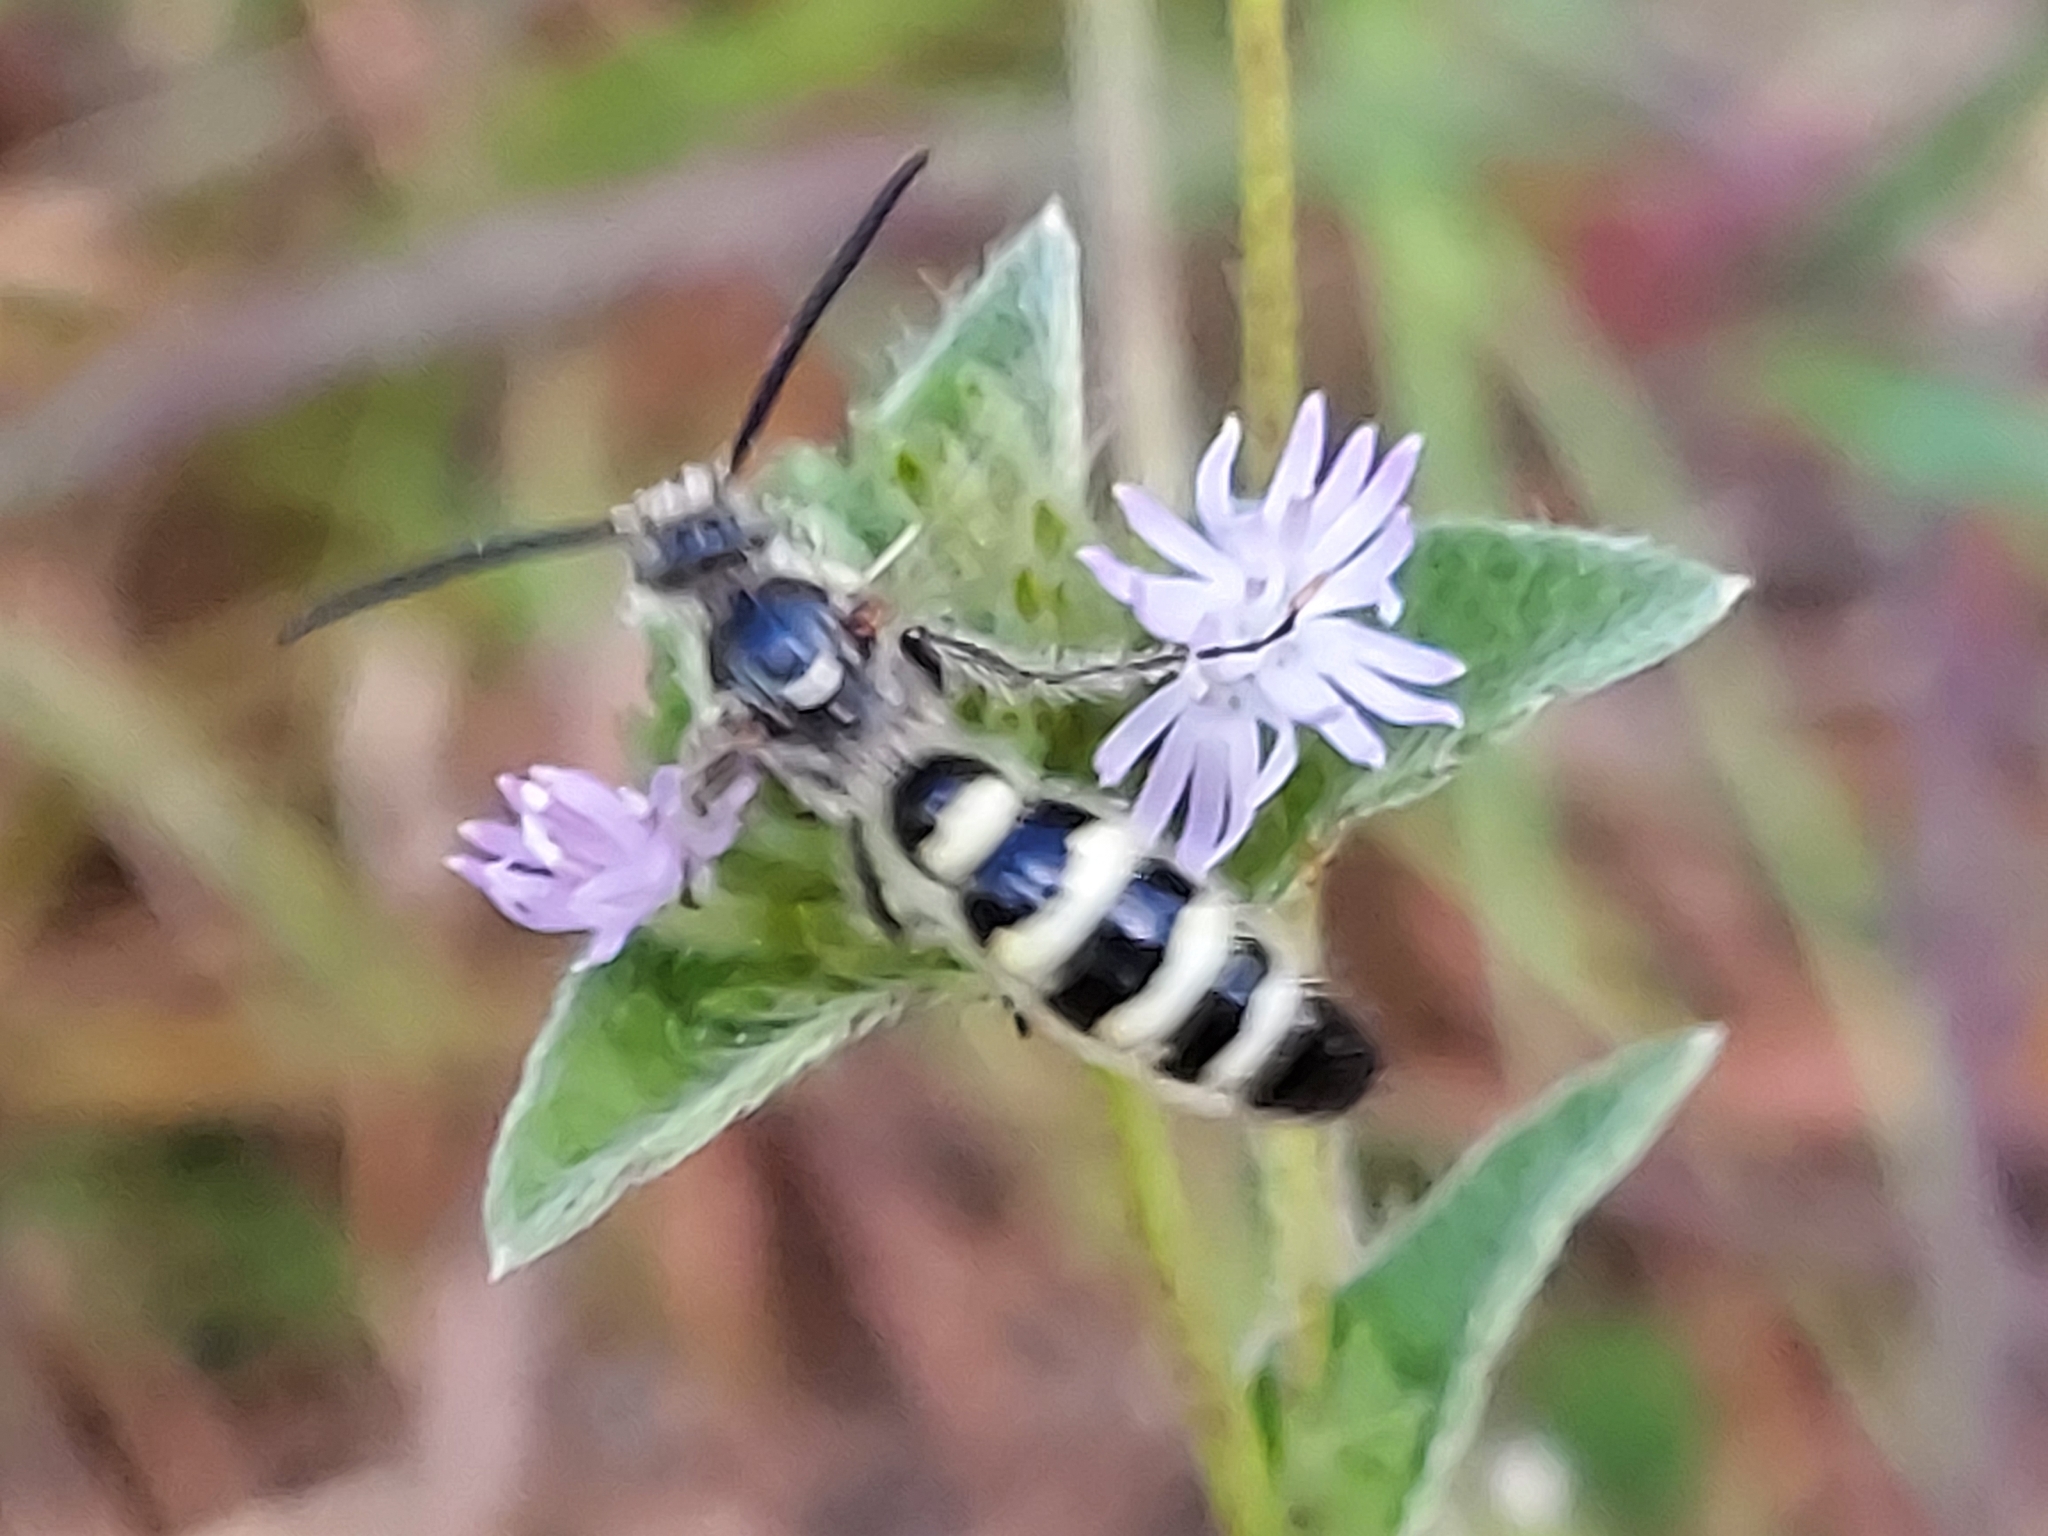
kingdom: Animalia
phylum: Arthropoda
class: Insecta
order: Hymenoptera
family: Scoliidae
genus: Dielis
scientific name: Dielis
